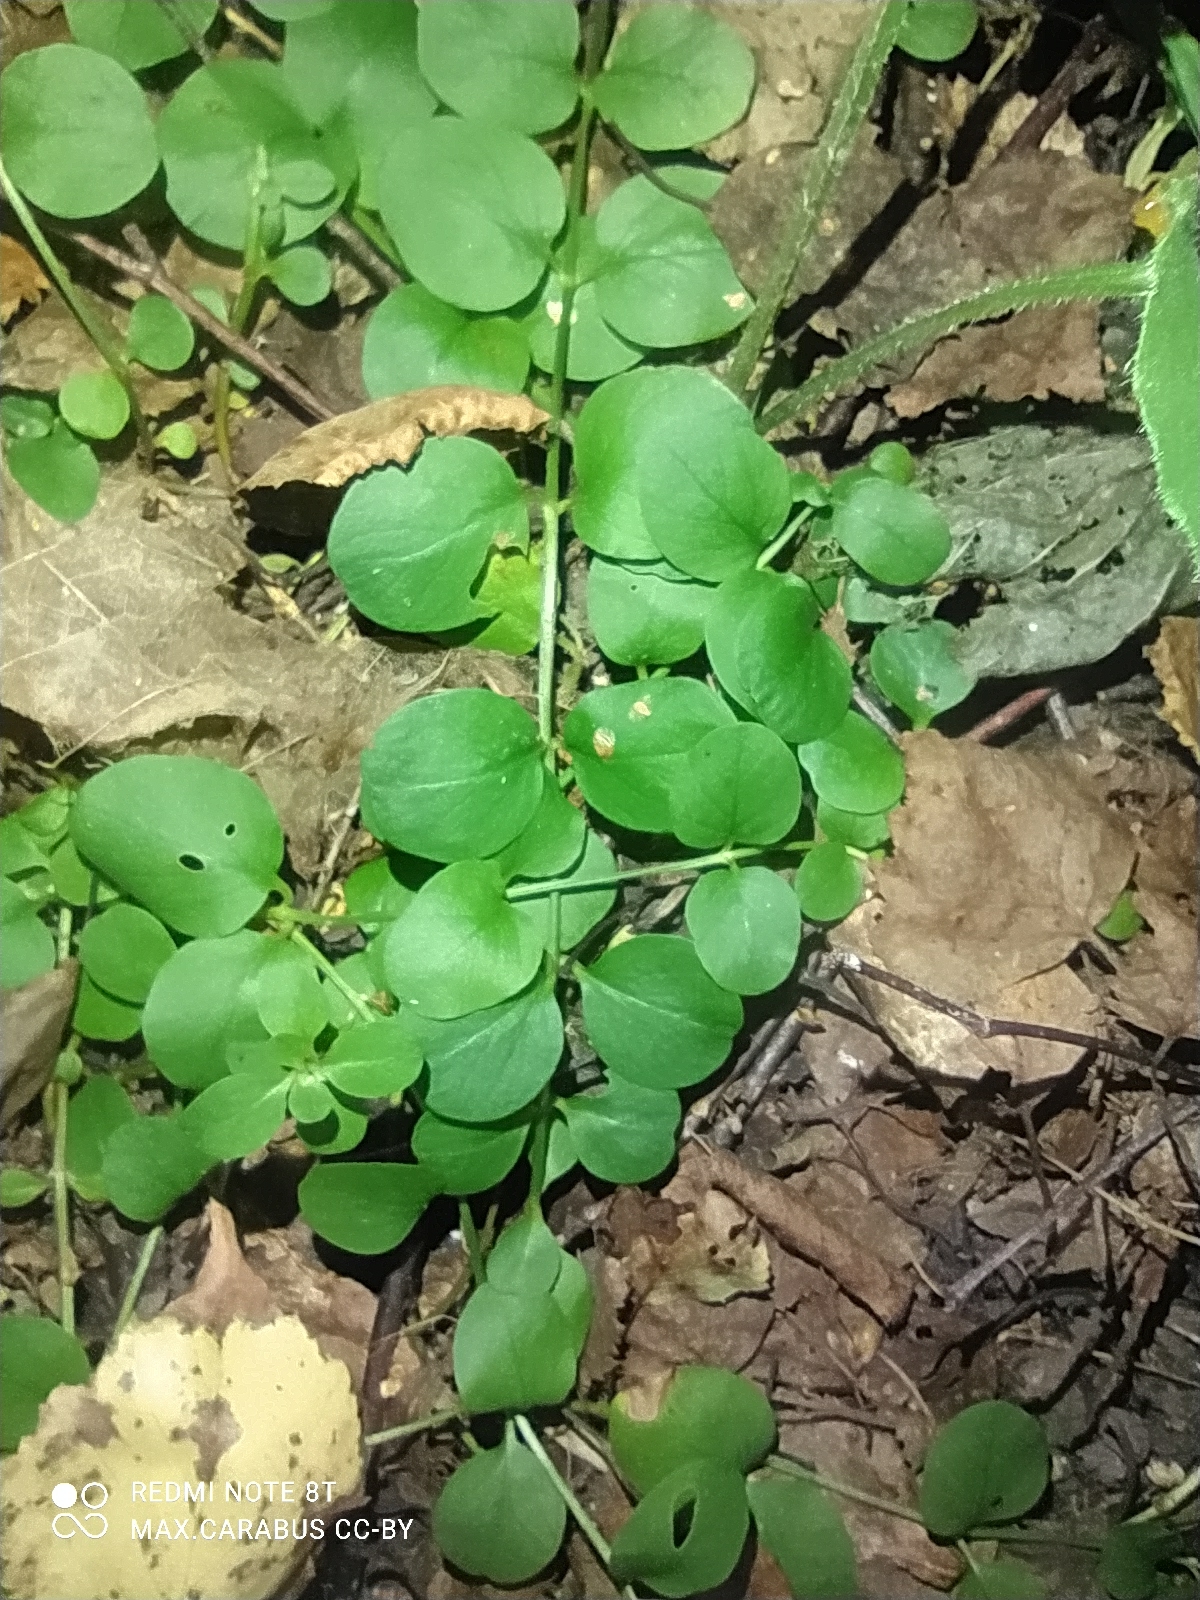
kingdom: Plantae
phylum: Tracheophyta
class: Magnoliopsida
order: Ericales
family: Primulaceae
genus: Lysimachia
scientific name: Lysimachia nummularia
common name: Moneywort
